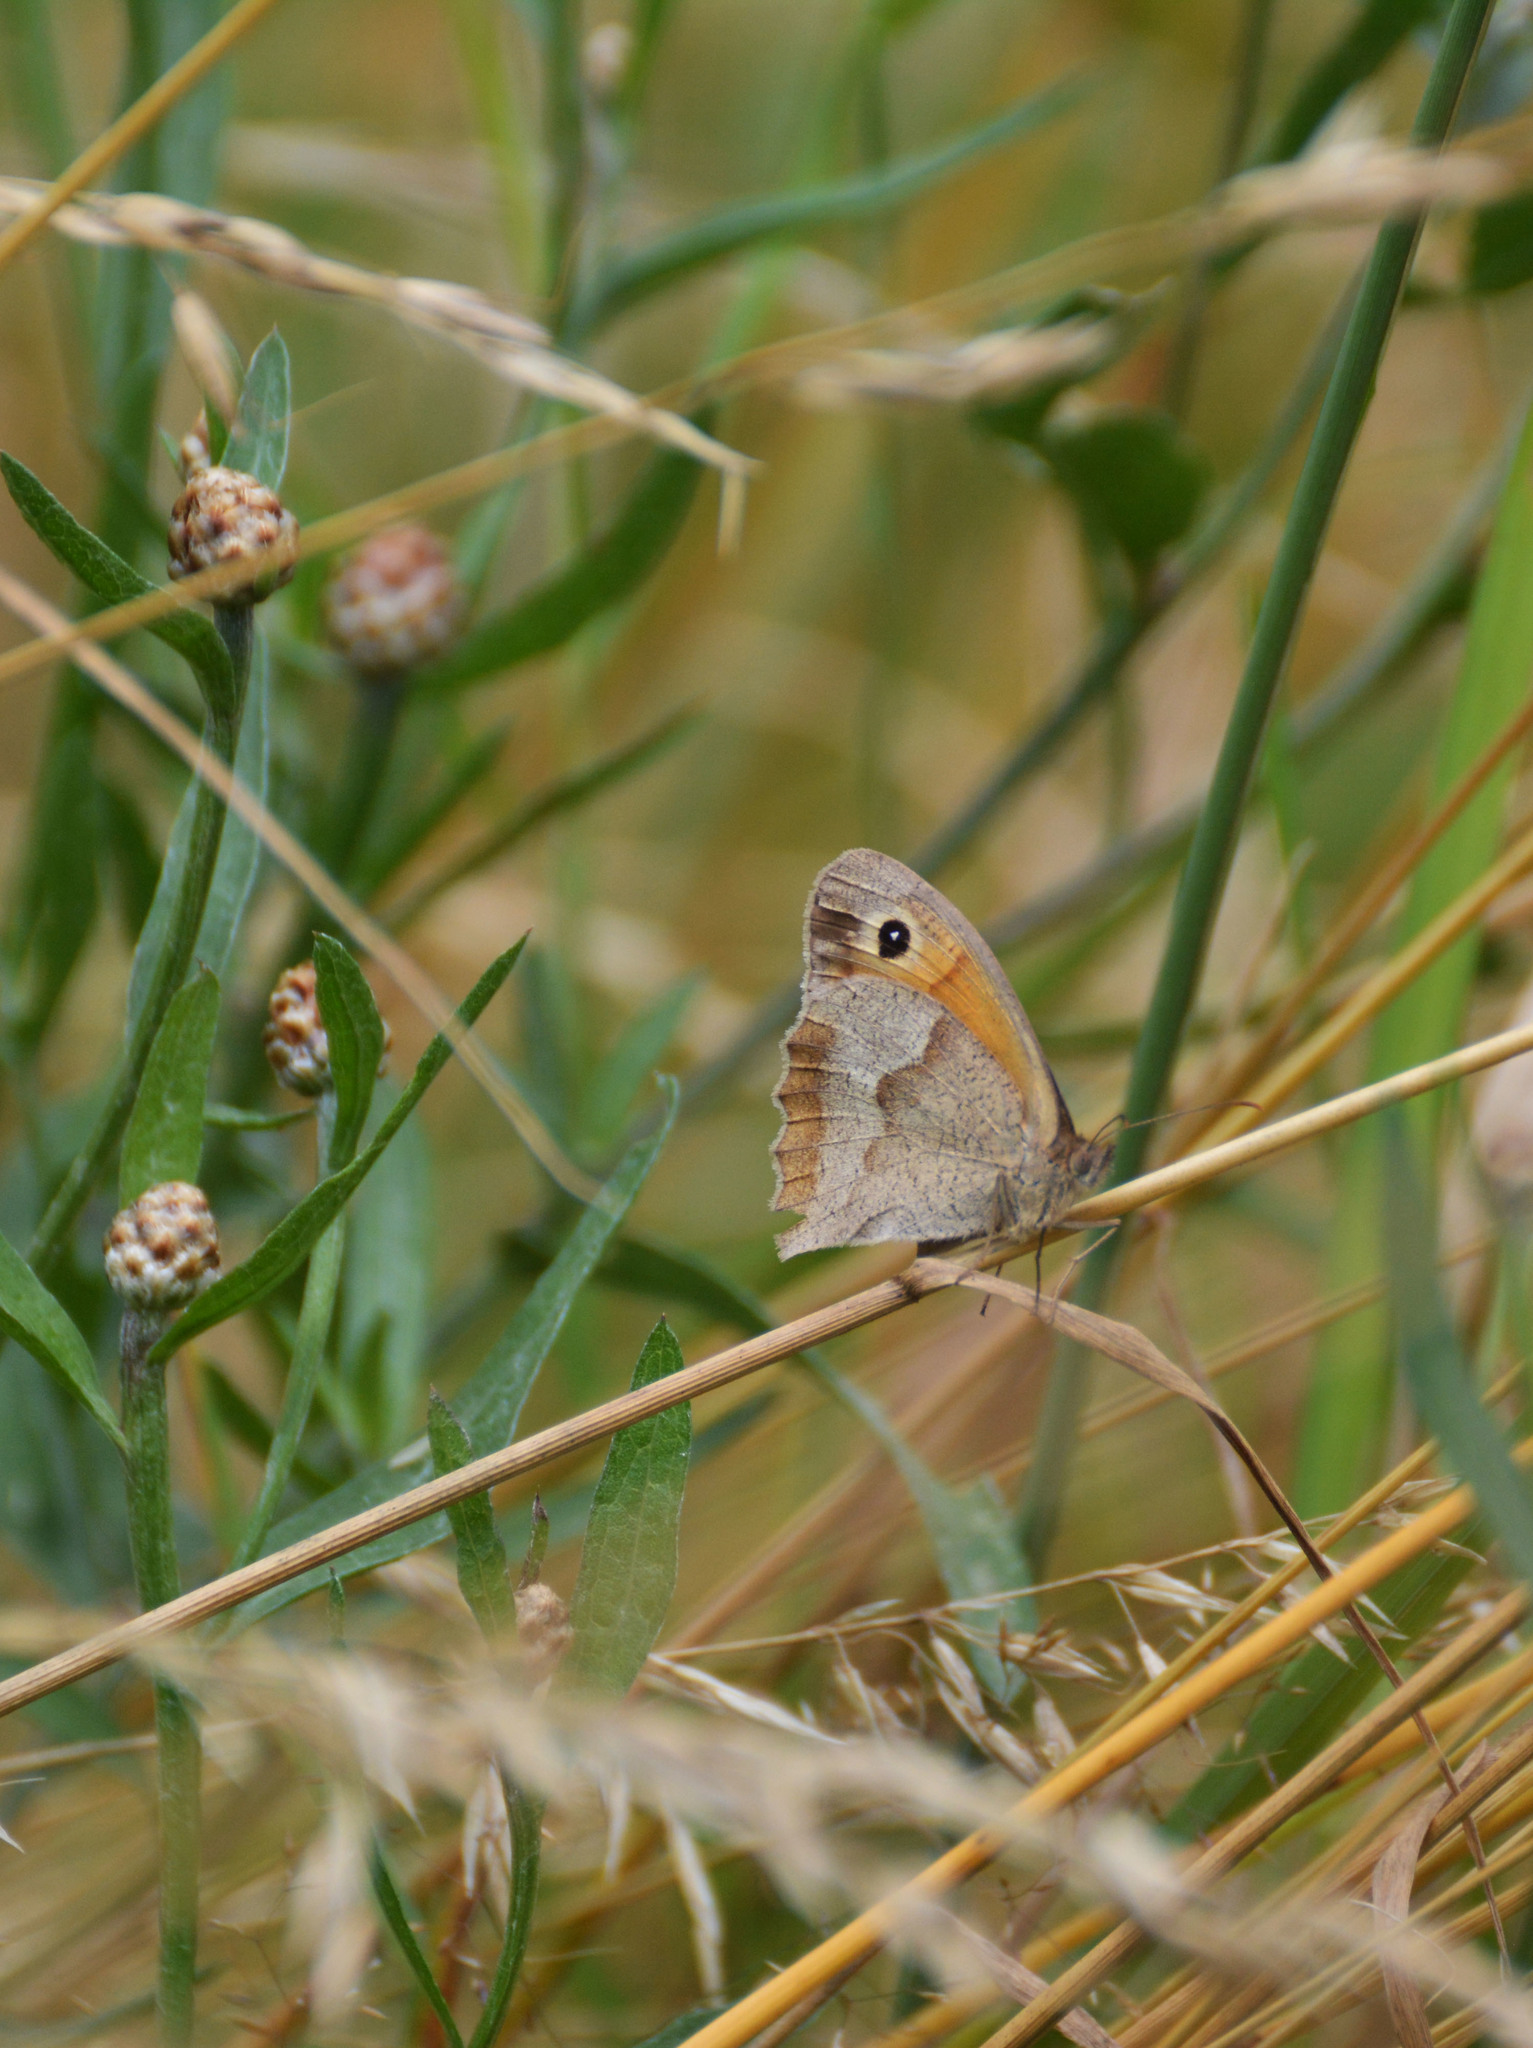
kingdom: Animalia
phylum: Arthropoda
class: Insecta
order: Lepidoptera
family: Nymphalidae
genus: Maniola
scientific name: Maniola jurtina
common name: Meadow brown
